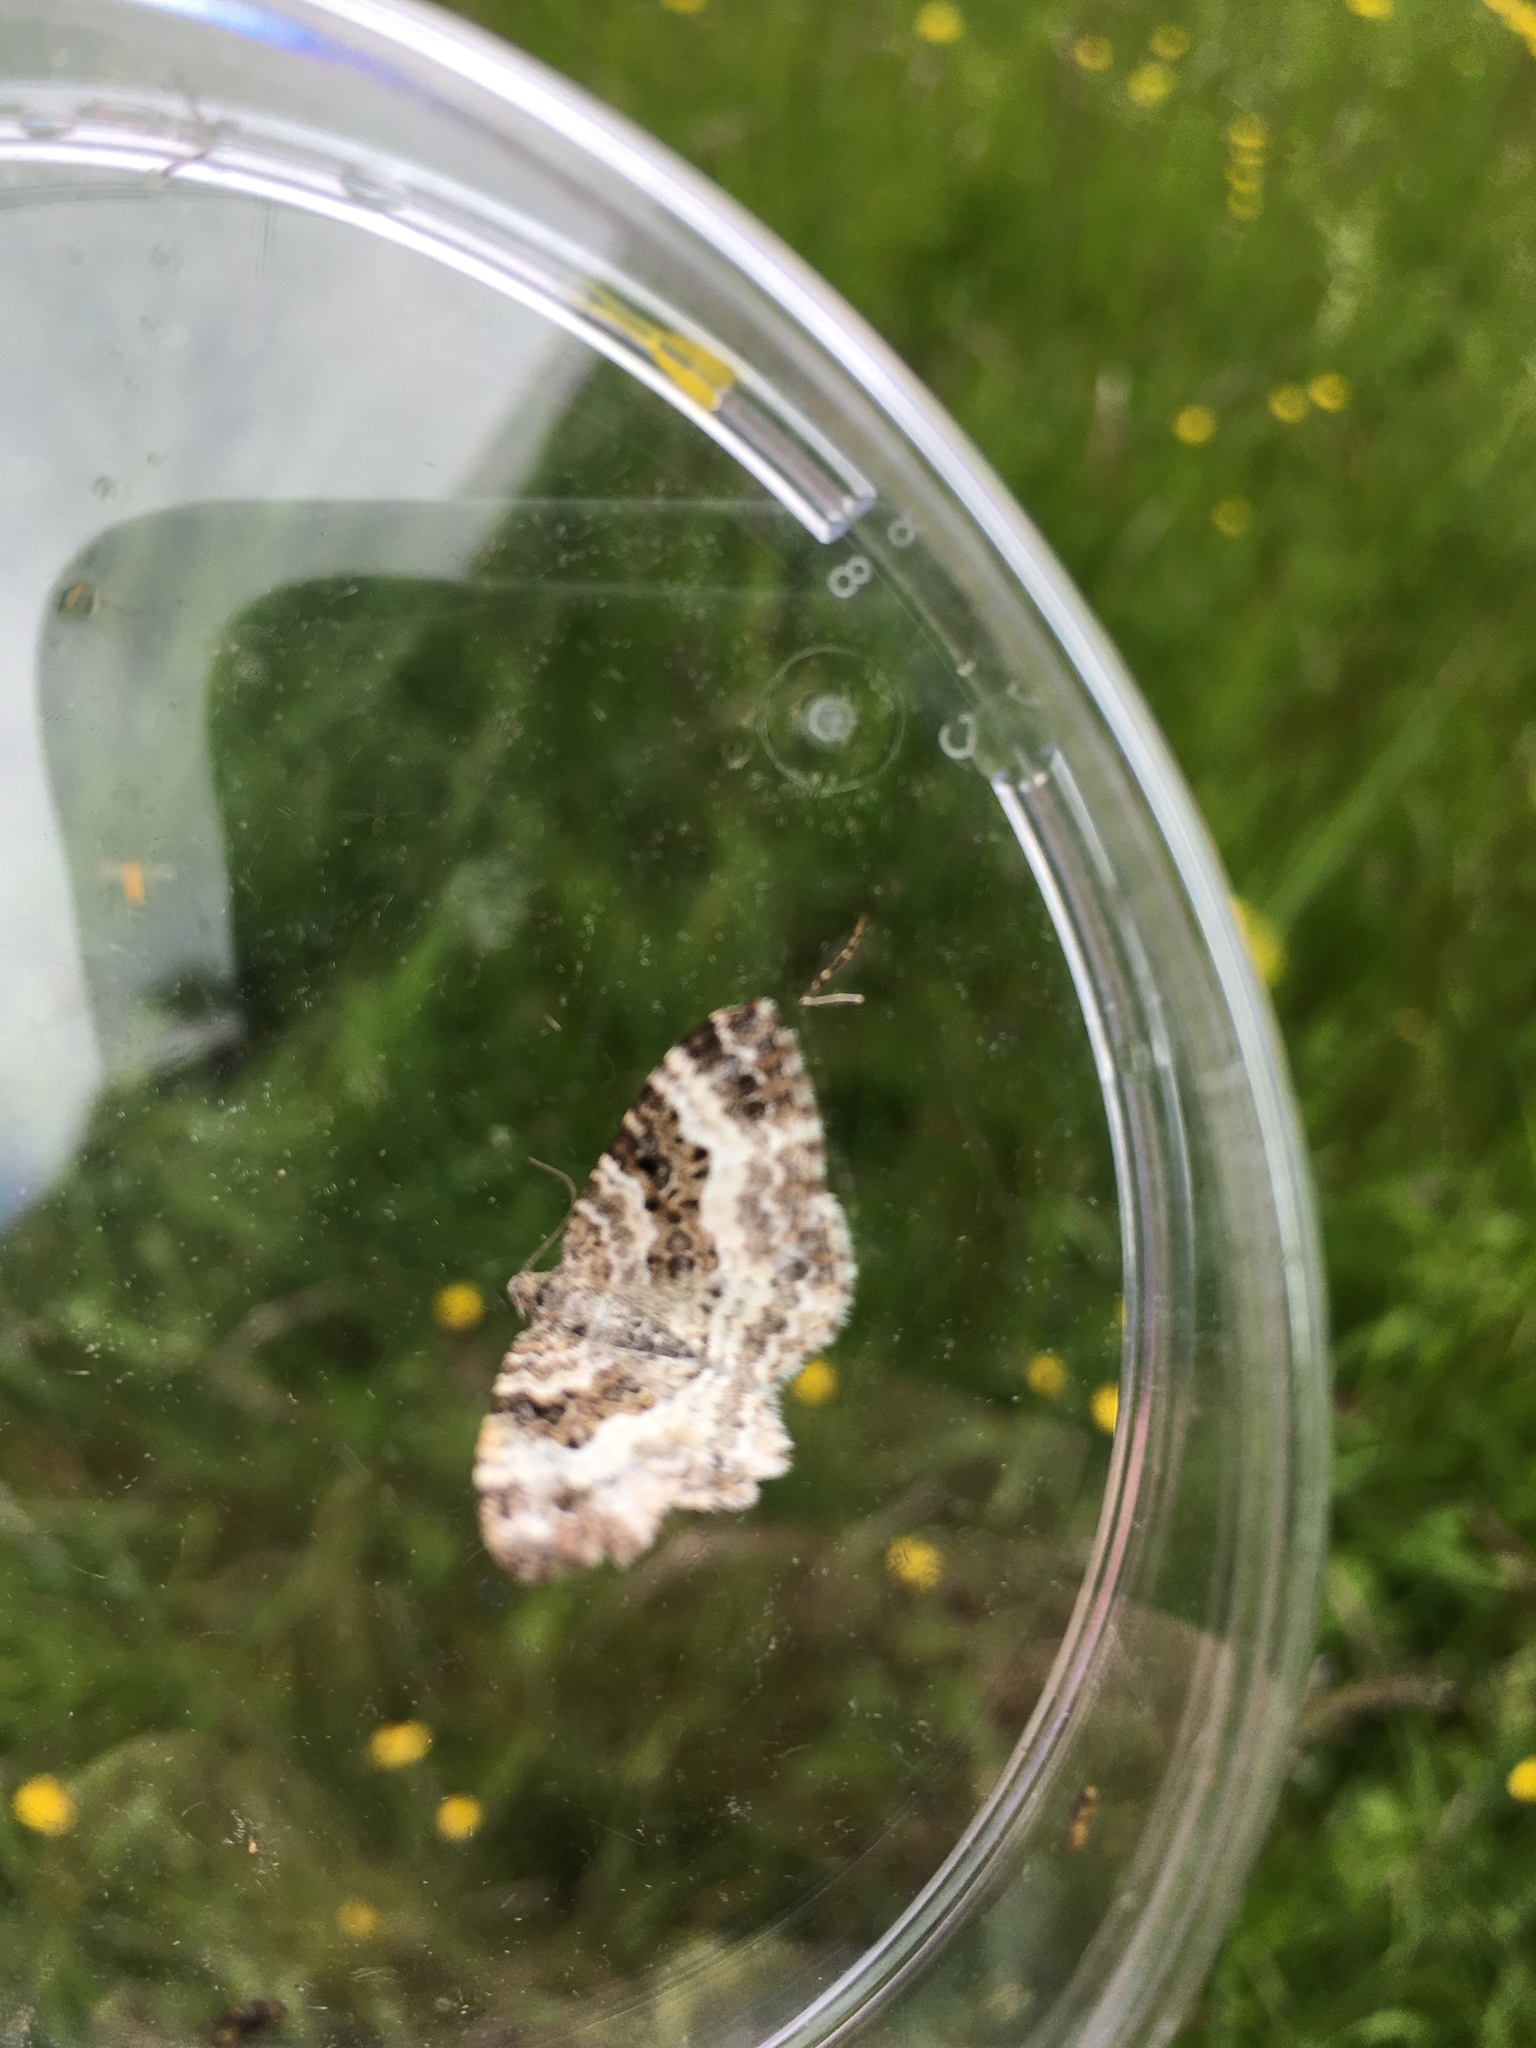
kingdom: Animalia
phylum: Arthropoda
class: Insecta
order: Lepidoptera
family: Geometridae
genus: Epirrhoe
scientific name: Epirrhoe alternata
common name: Common carpet
